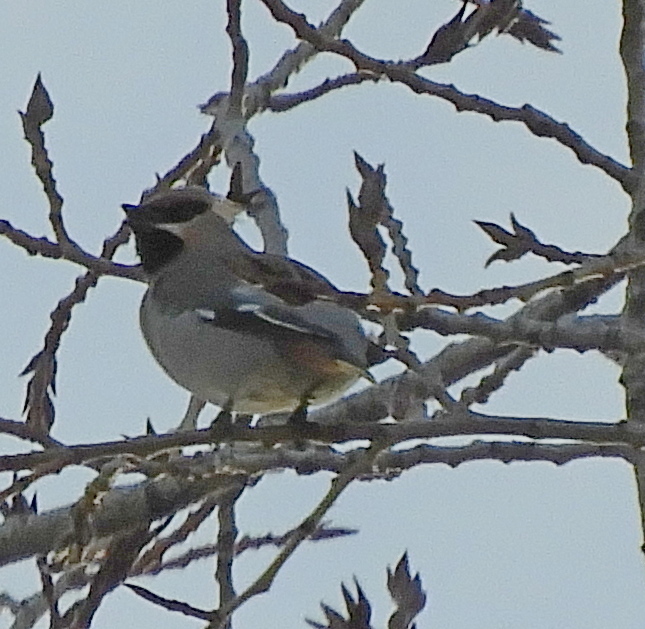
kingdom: Animalia
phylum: Chordata
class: Aves
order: Passeriformes
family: Bombycillidae
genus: Bombycilla
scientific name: Bombycilla garrulus
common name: Bohemian waxwing
